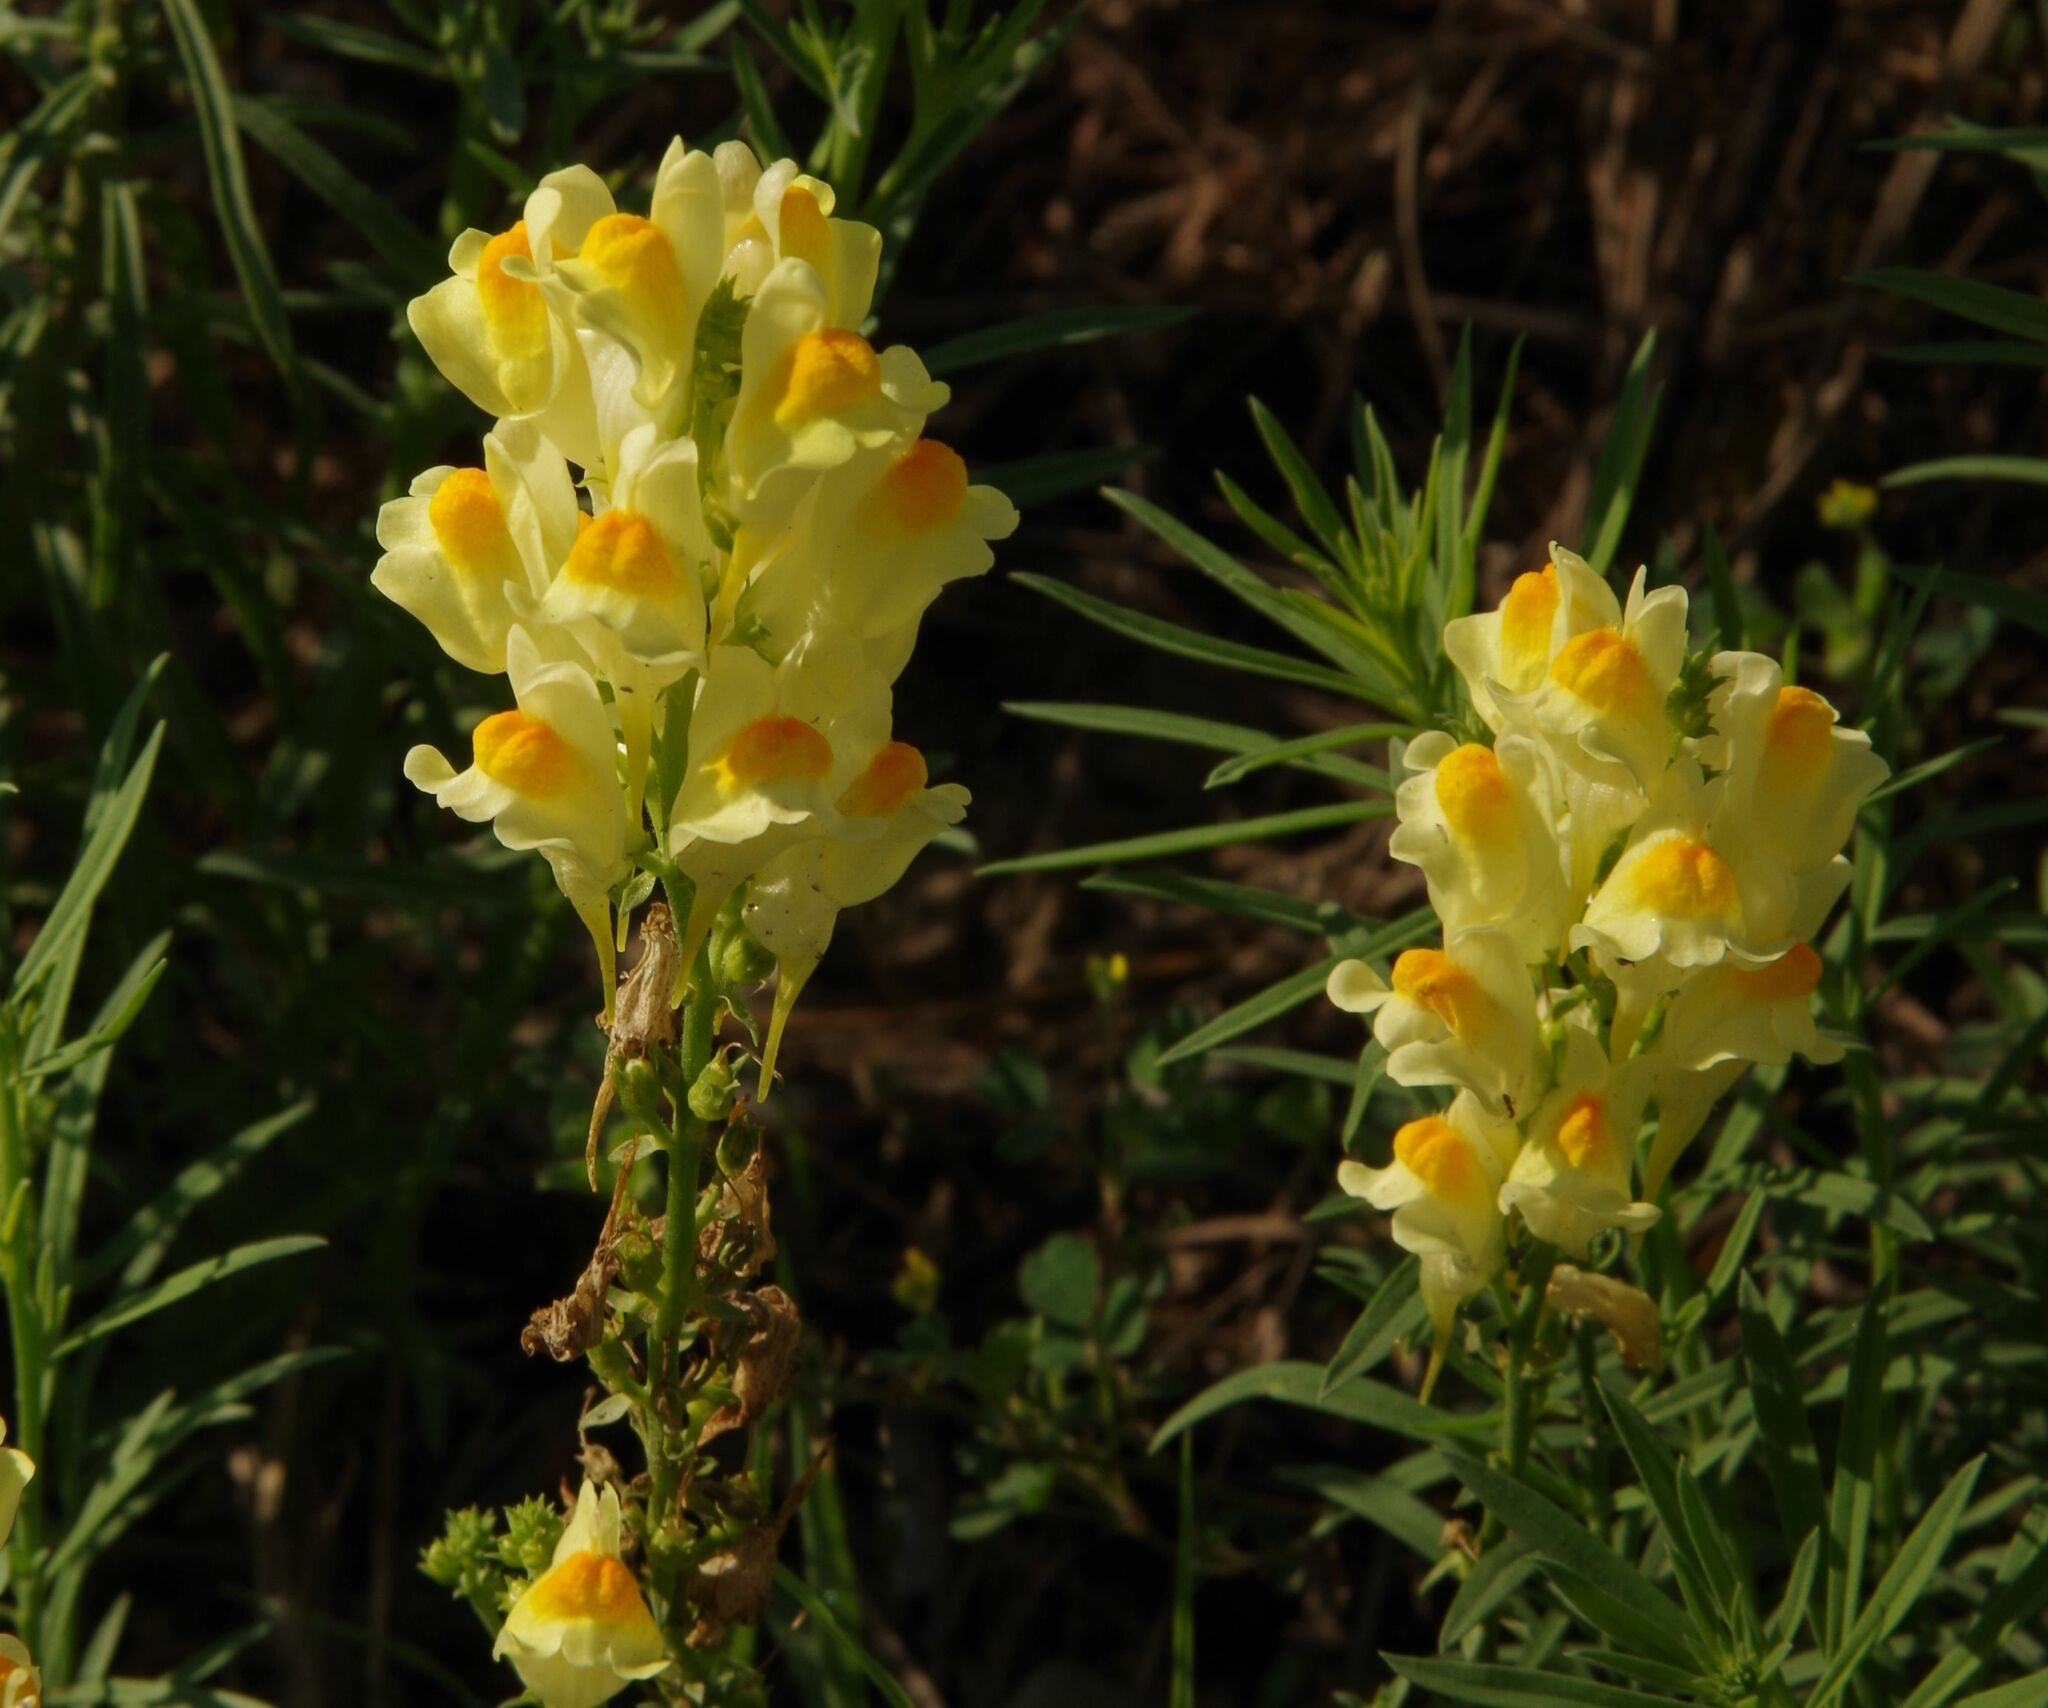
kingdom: Plantae
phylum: Tracheophyta
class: Magnoliopsida
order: Lamiales
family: Plantaginaceae
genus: Linaria
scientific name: Linaria vulgaris
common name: Butter and eggs
